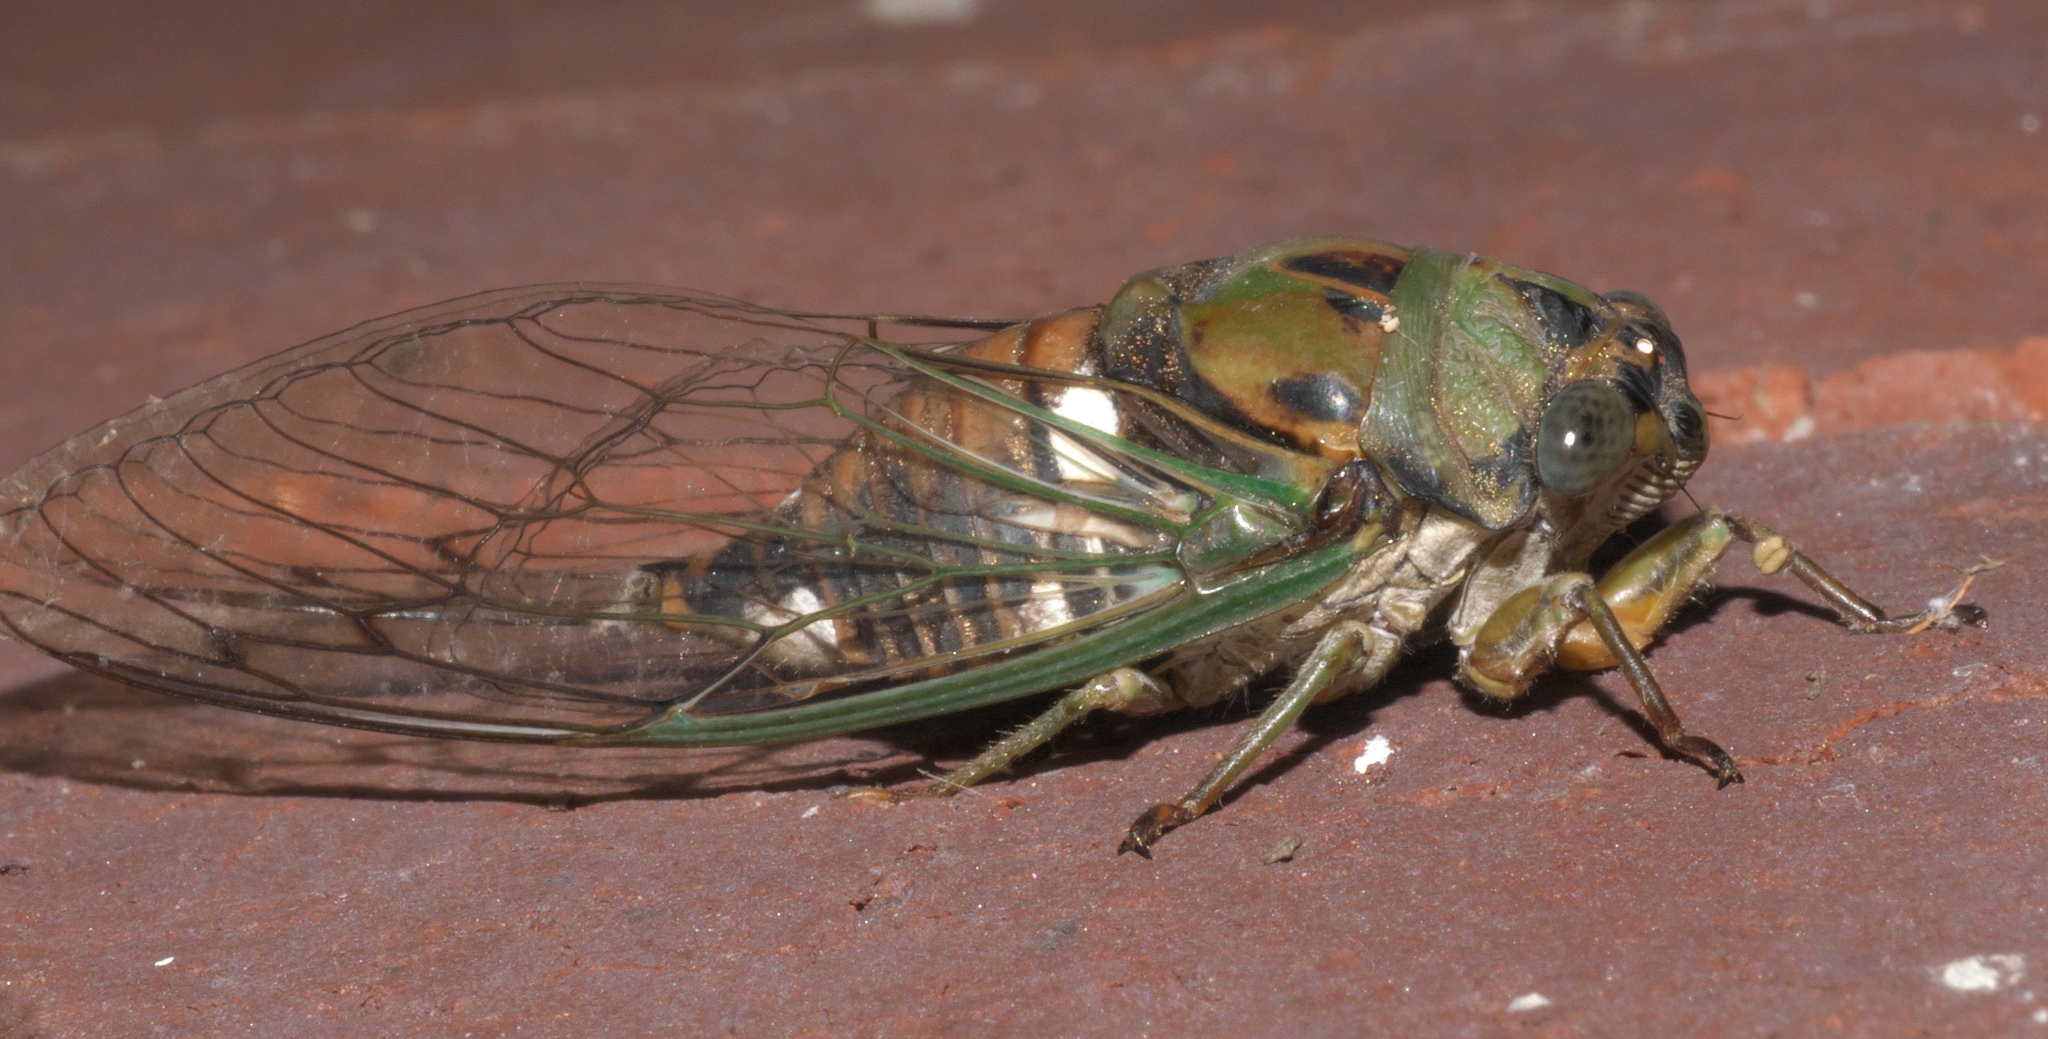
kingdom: Animalia
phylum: Arthropoda
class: Insecta
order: Hemiptera
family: Cicadidae
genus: Neotibicen
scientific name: Neotibicen pruinosus
